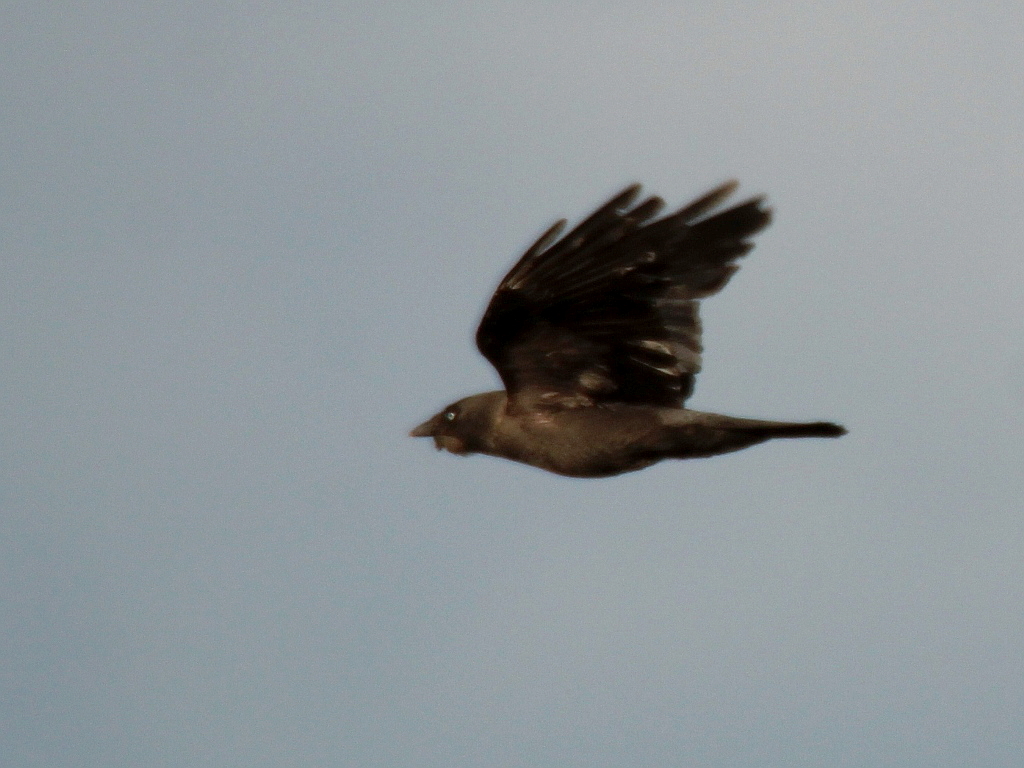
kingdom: Animalia
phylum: Chordata
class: Aves
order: Passeriformes
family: Corvidae
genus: Coloeus
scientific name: Coloeus monedula
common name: Western jackdaw
